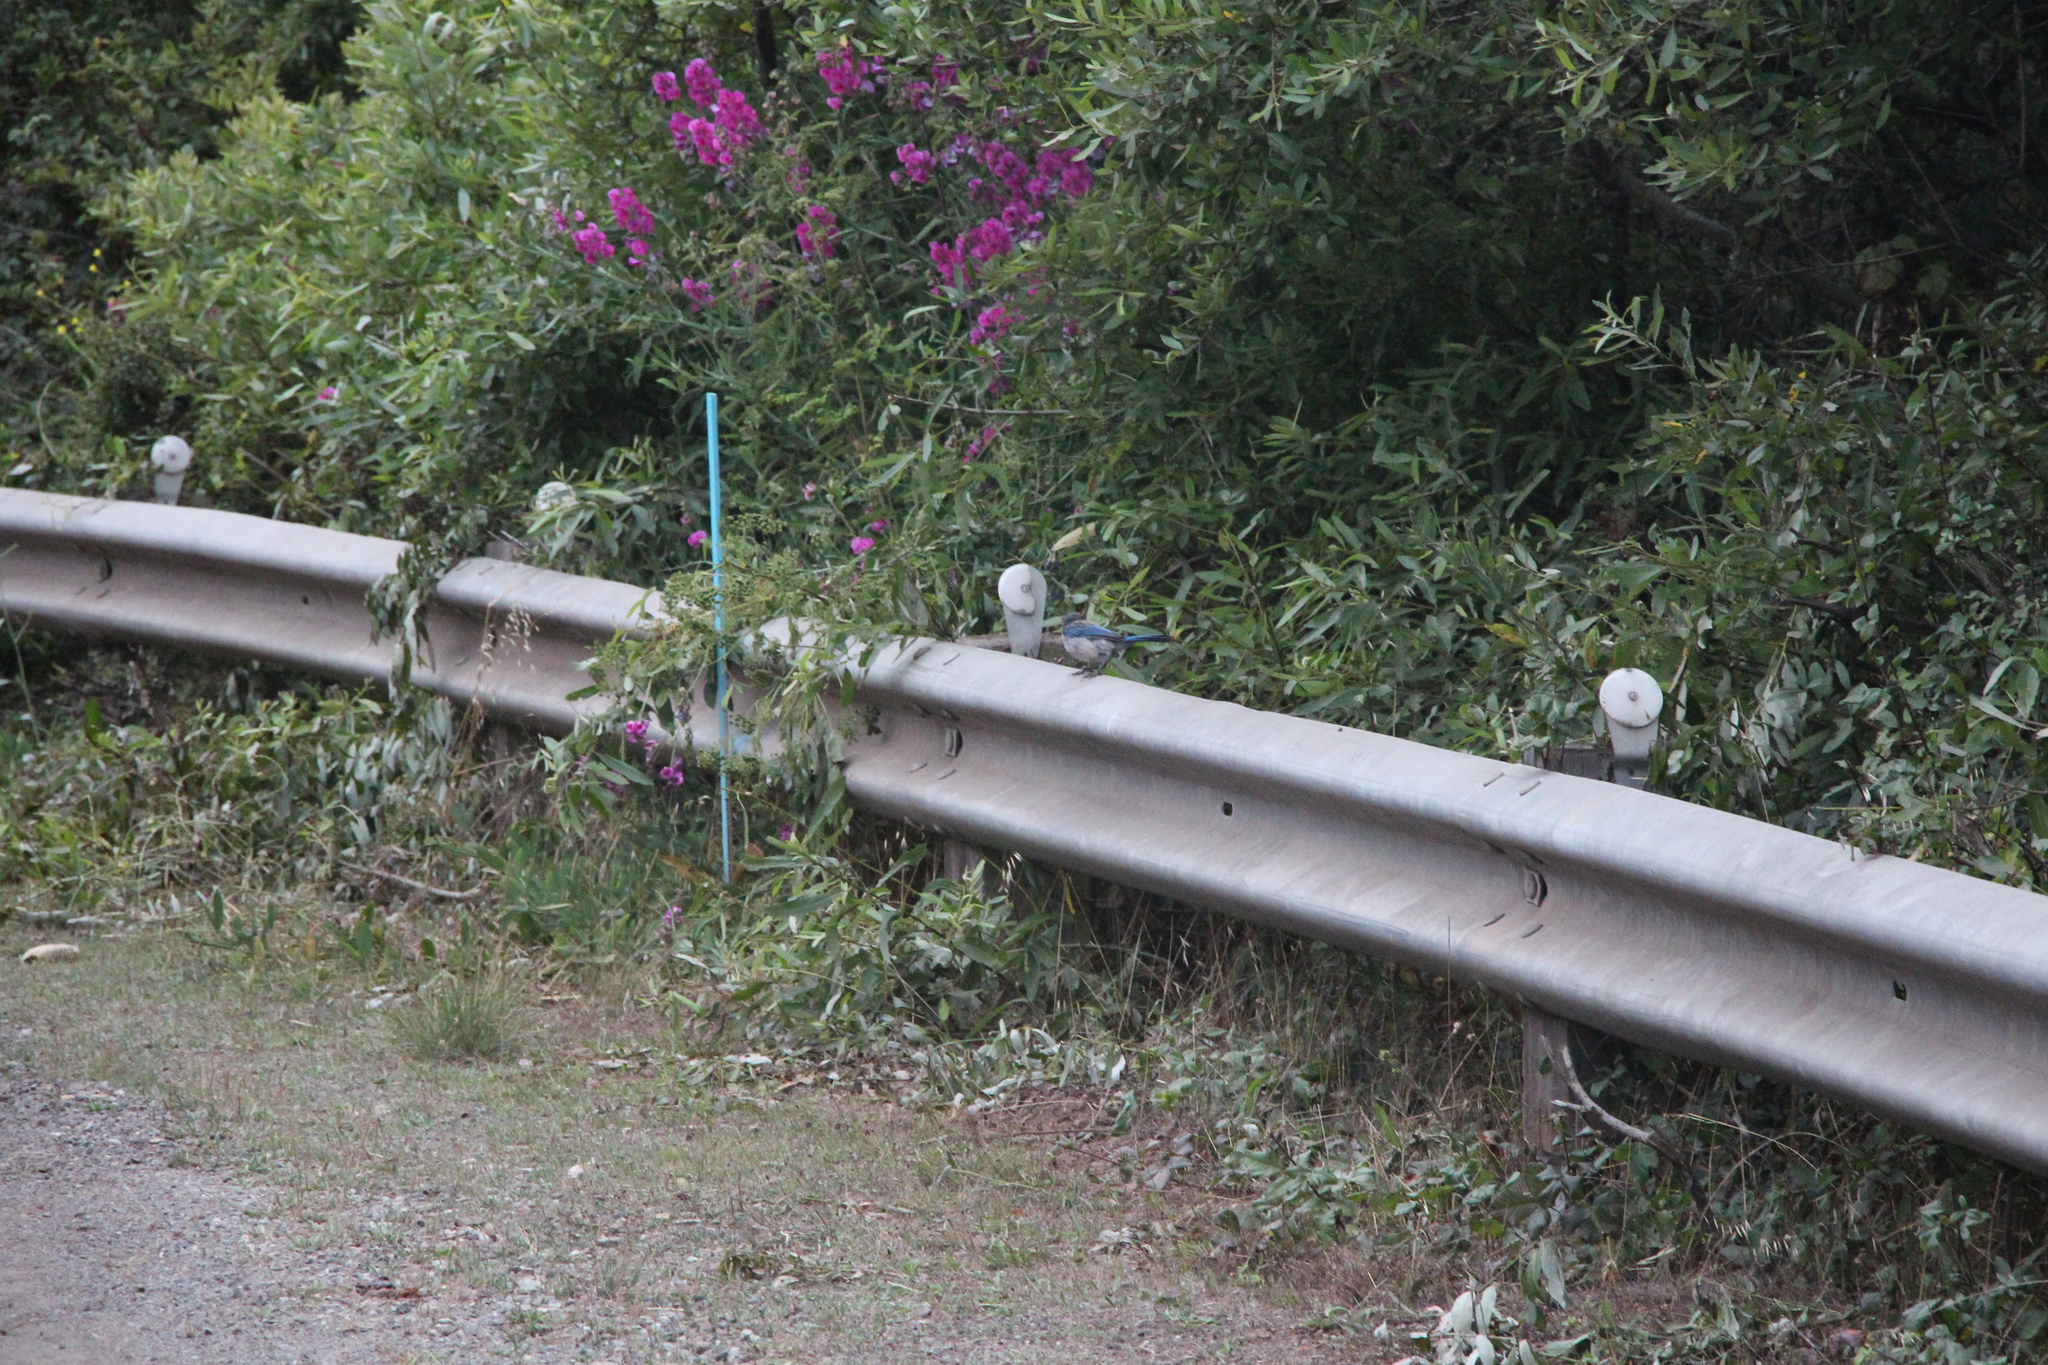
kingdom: Animalia
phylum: Chordata
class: Aves
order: Passeriformes
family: Corvidae
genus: Aphelocoma
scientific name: Aphelocoma californica
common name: California scrub-jay
